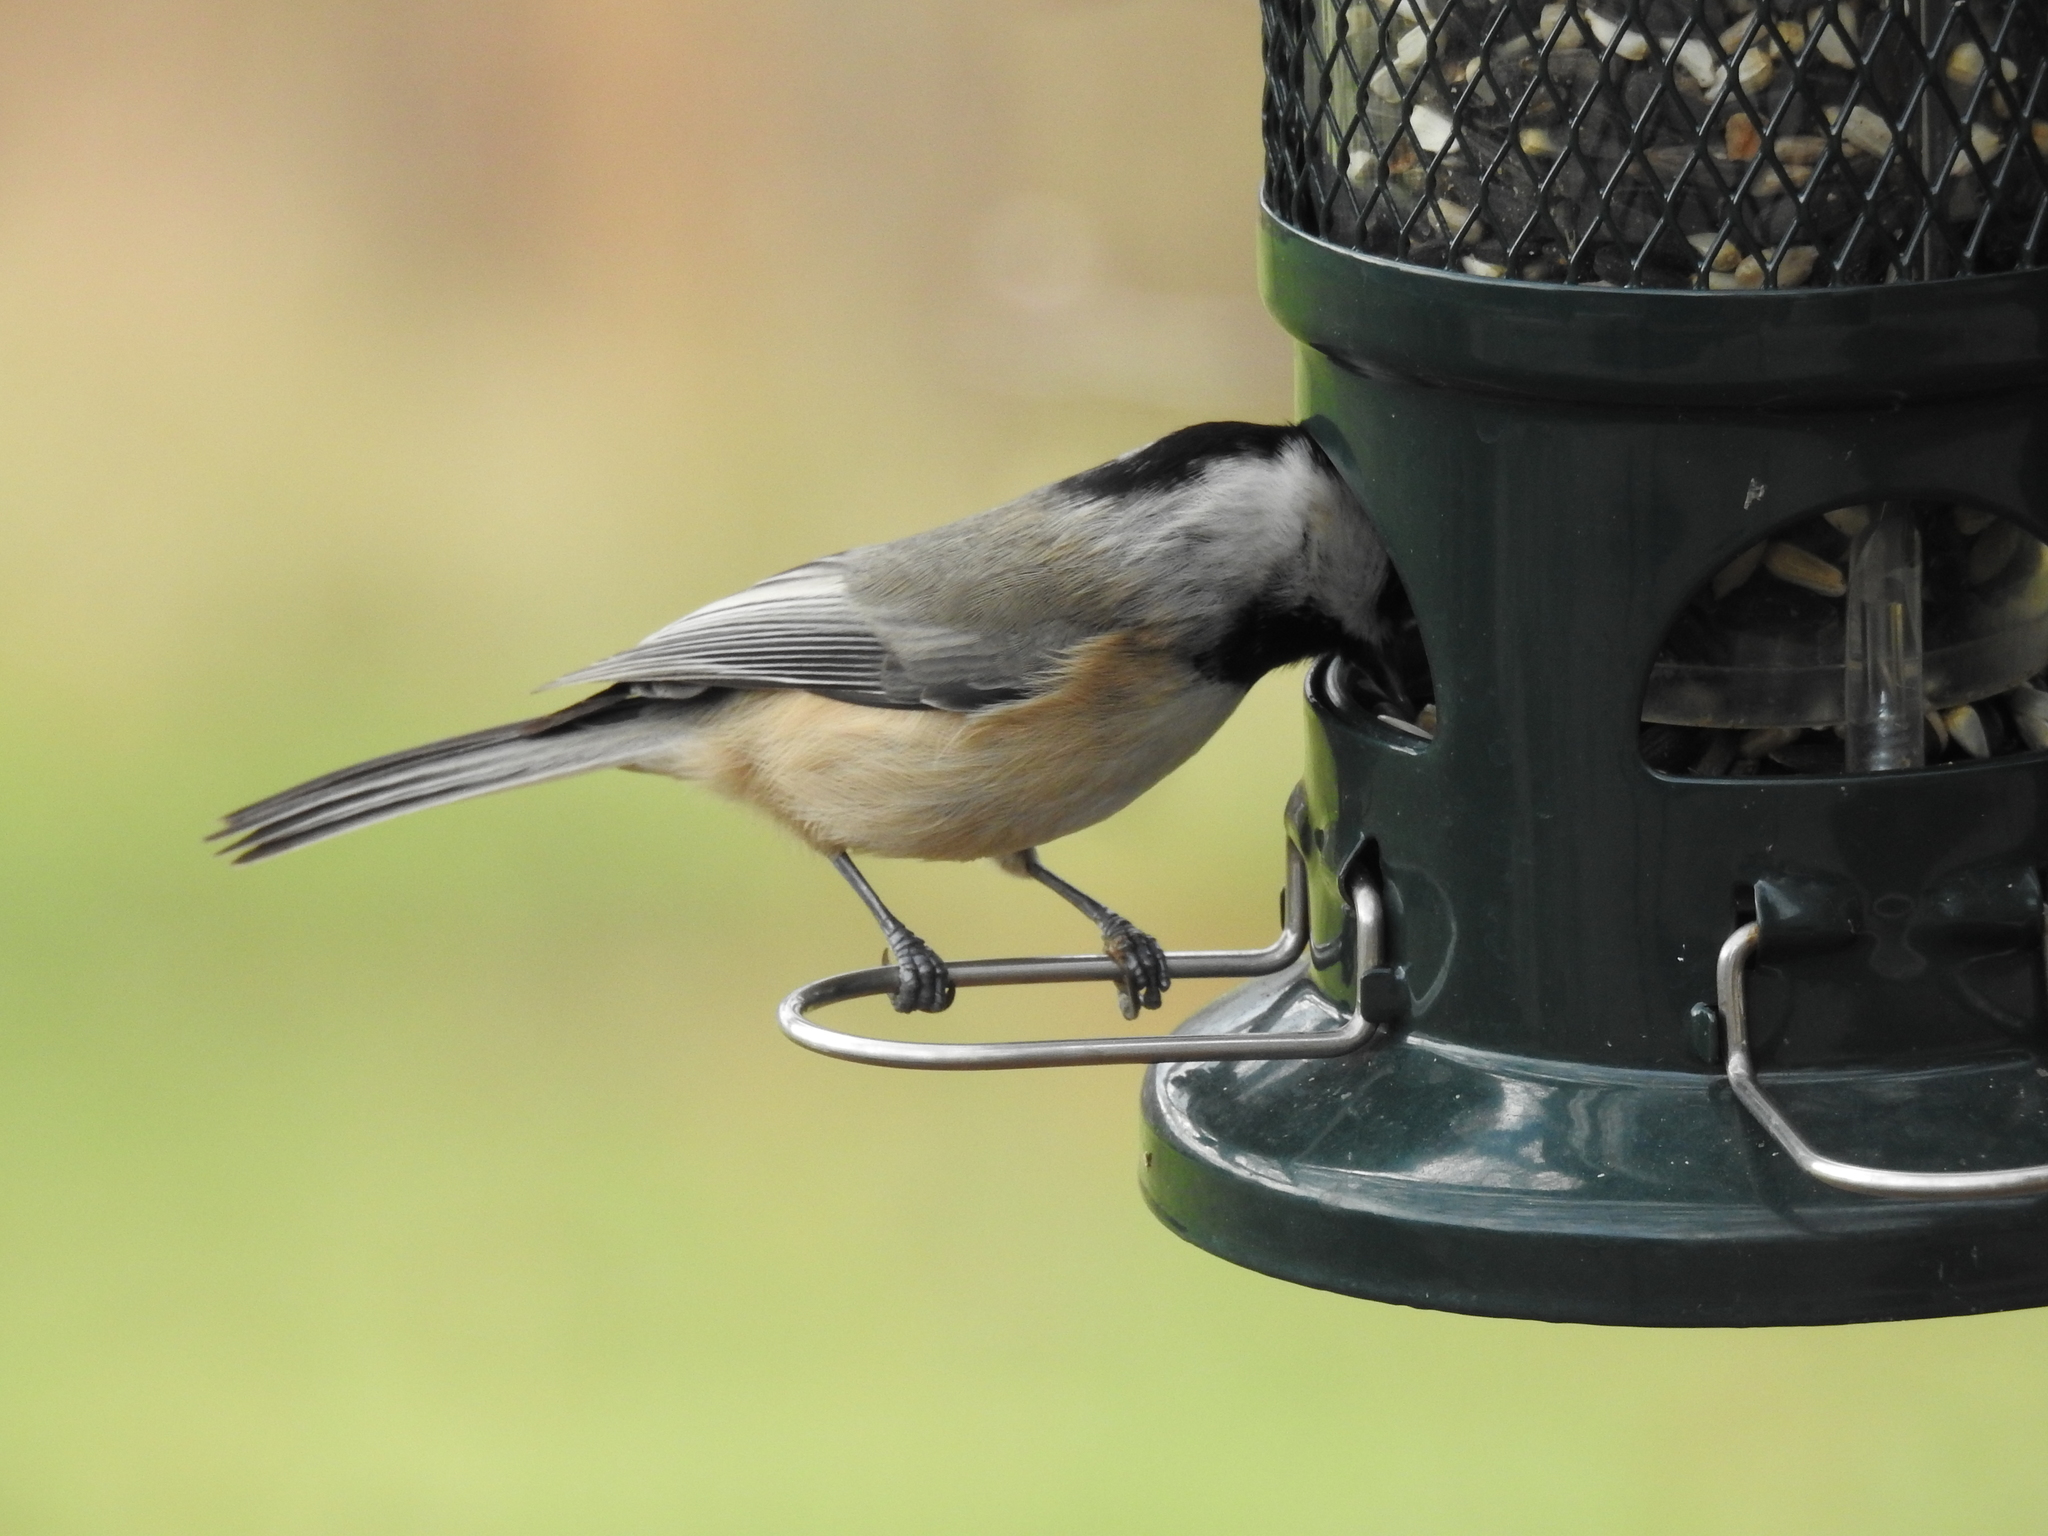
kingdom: Animalia
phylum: Chordata
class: Aves
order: Passeriformes
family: Paridae
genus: Poecile
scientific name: Poecile carolinensis
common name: Carolina chickadee
